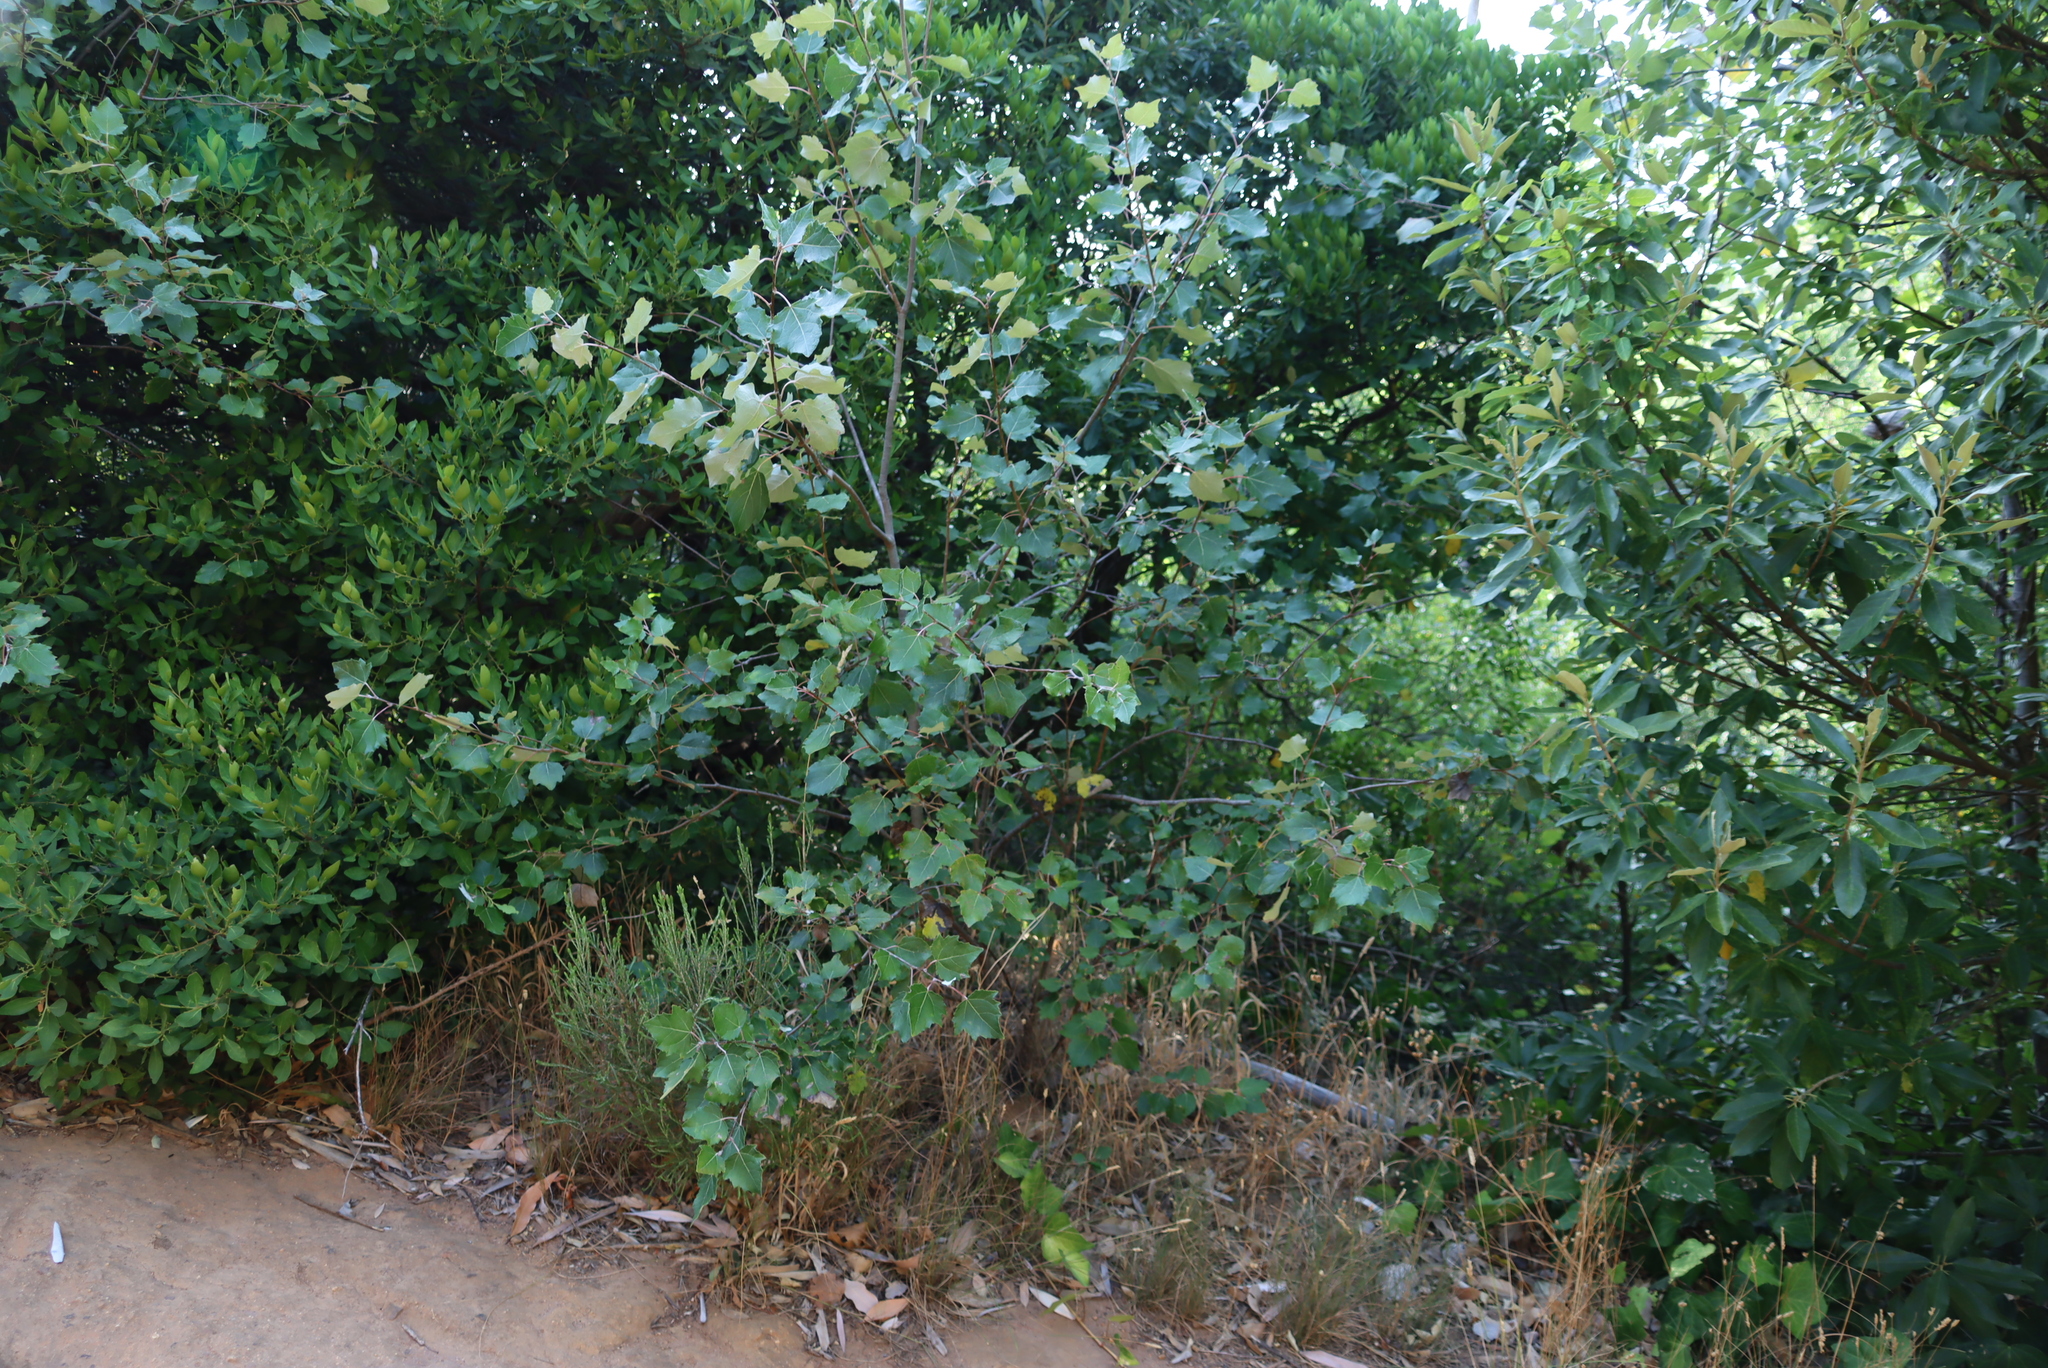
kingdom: Plantae
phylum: Tracheophyta
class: Magnoliopsida
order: Malpighiales
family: Salicaceae
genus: Populus
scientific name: Populus alba
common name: White poplar
